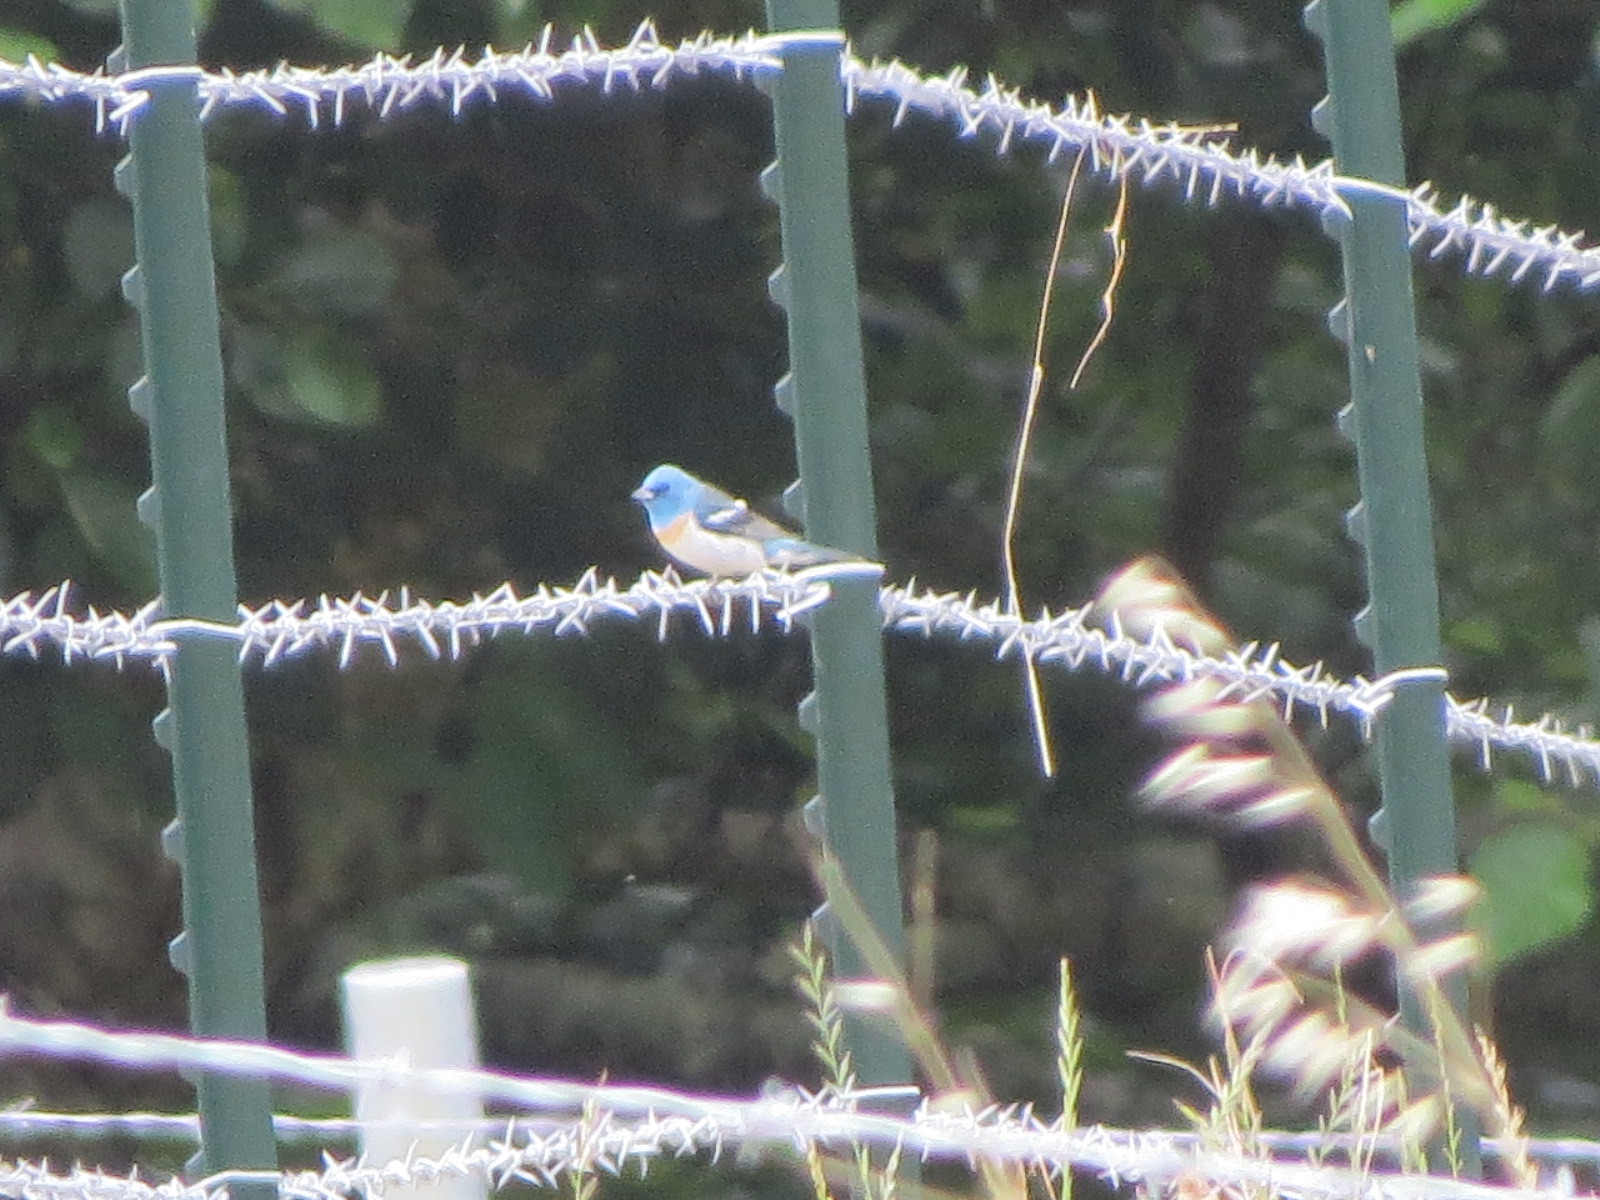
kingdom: Animalia
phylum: Chordata
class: Aves
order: Passeriformes
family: Cardinalidae
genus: Passerina
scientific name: Passerina amoena
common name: Lazuli bunting
